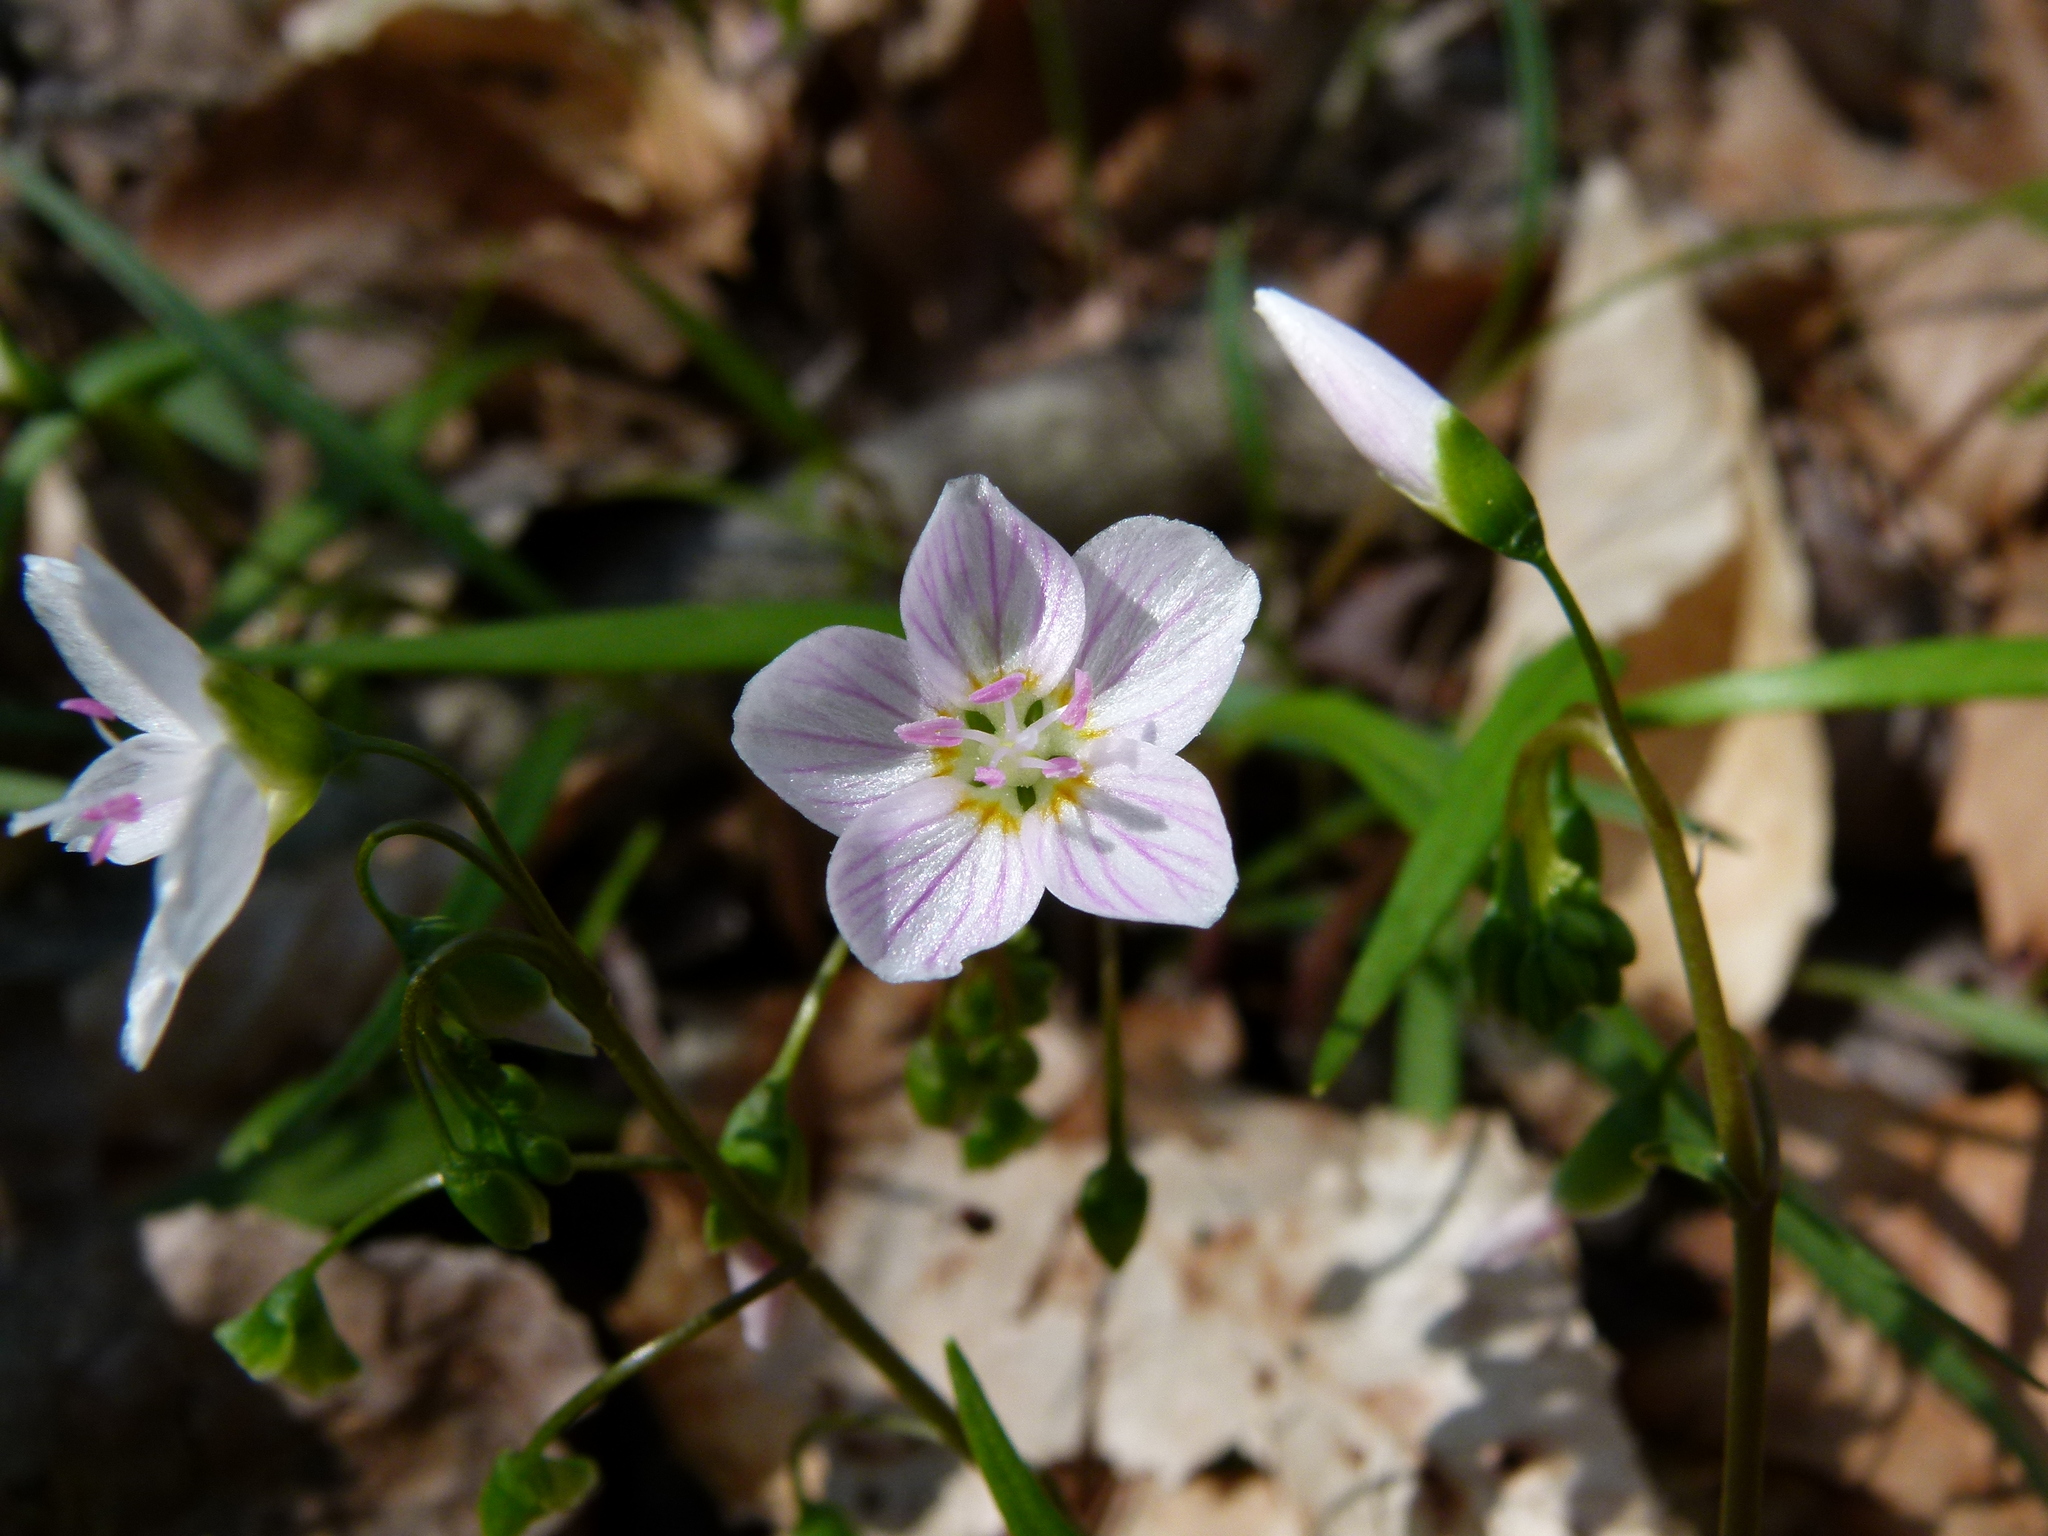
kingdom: Plantae
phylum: Tracheophyta
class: Magnoliopsida
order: Caryophyllales
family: Montiaceae
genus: Claytonia
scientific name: Claytonia virginica
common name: Virginia springbeauty
